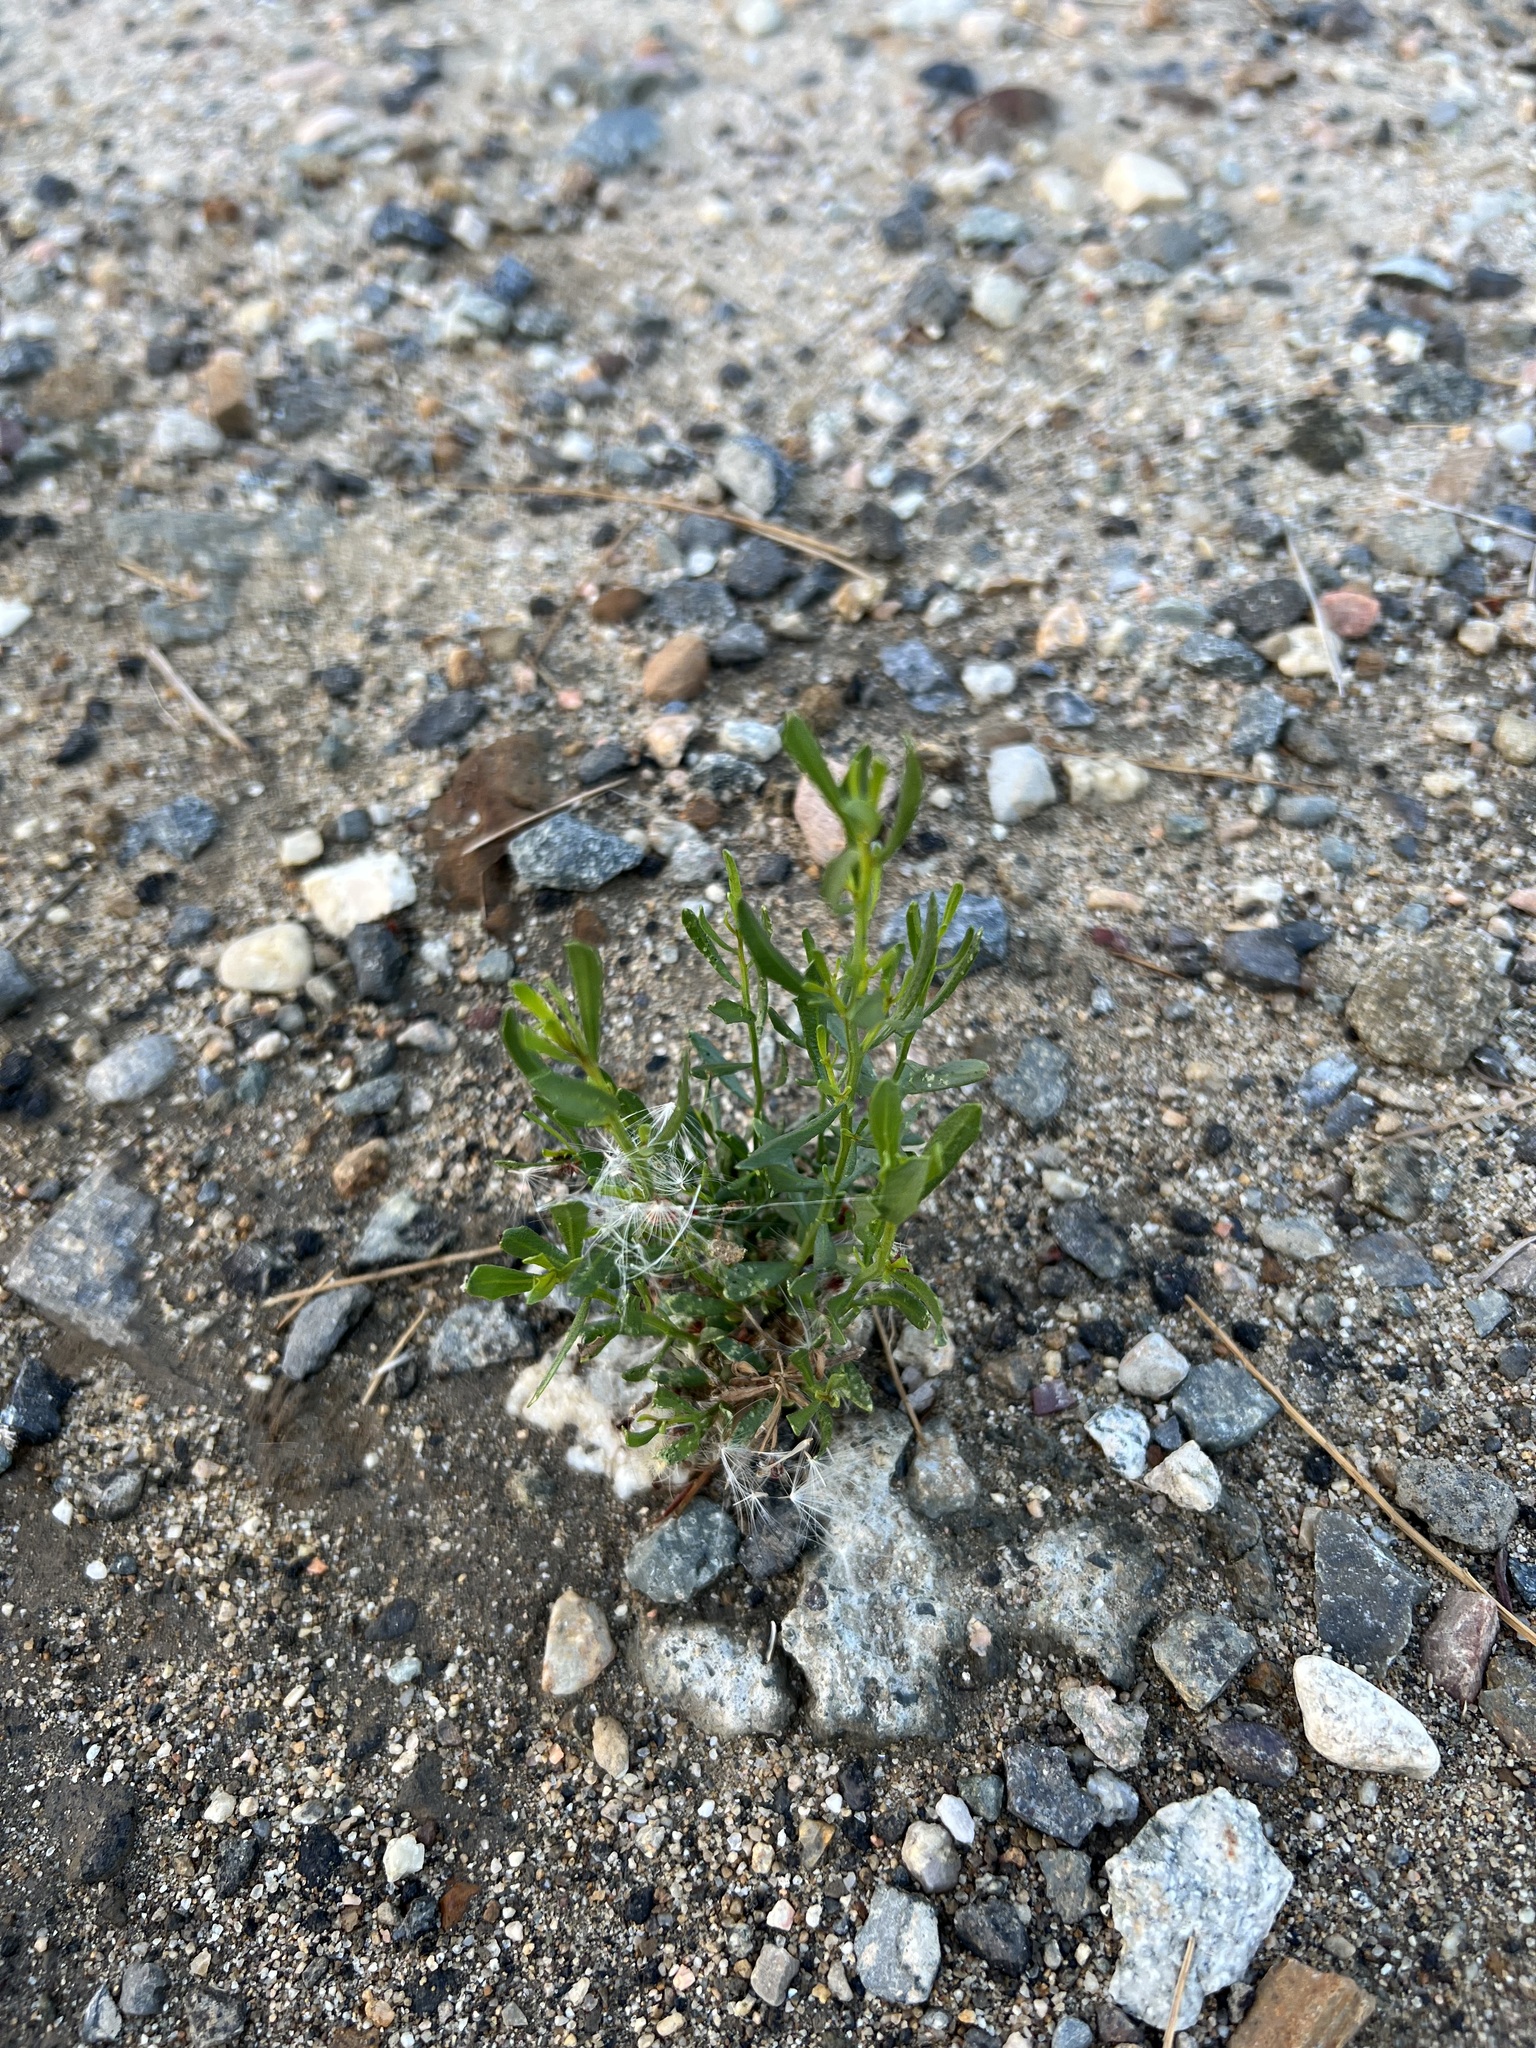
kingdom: Plantae
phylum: Tracheophyta
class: Magnoliopsida
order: Asterales
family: Asteraceae
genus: Baccharis
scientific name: Baccharis pilularis
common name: Coyotebrush
